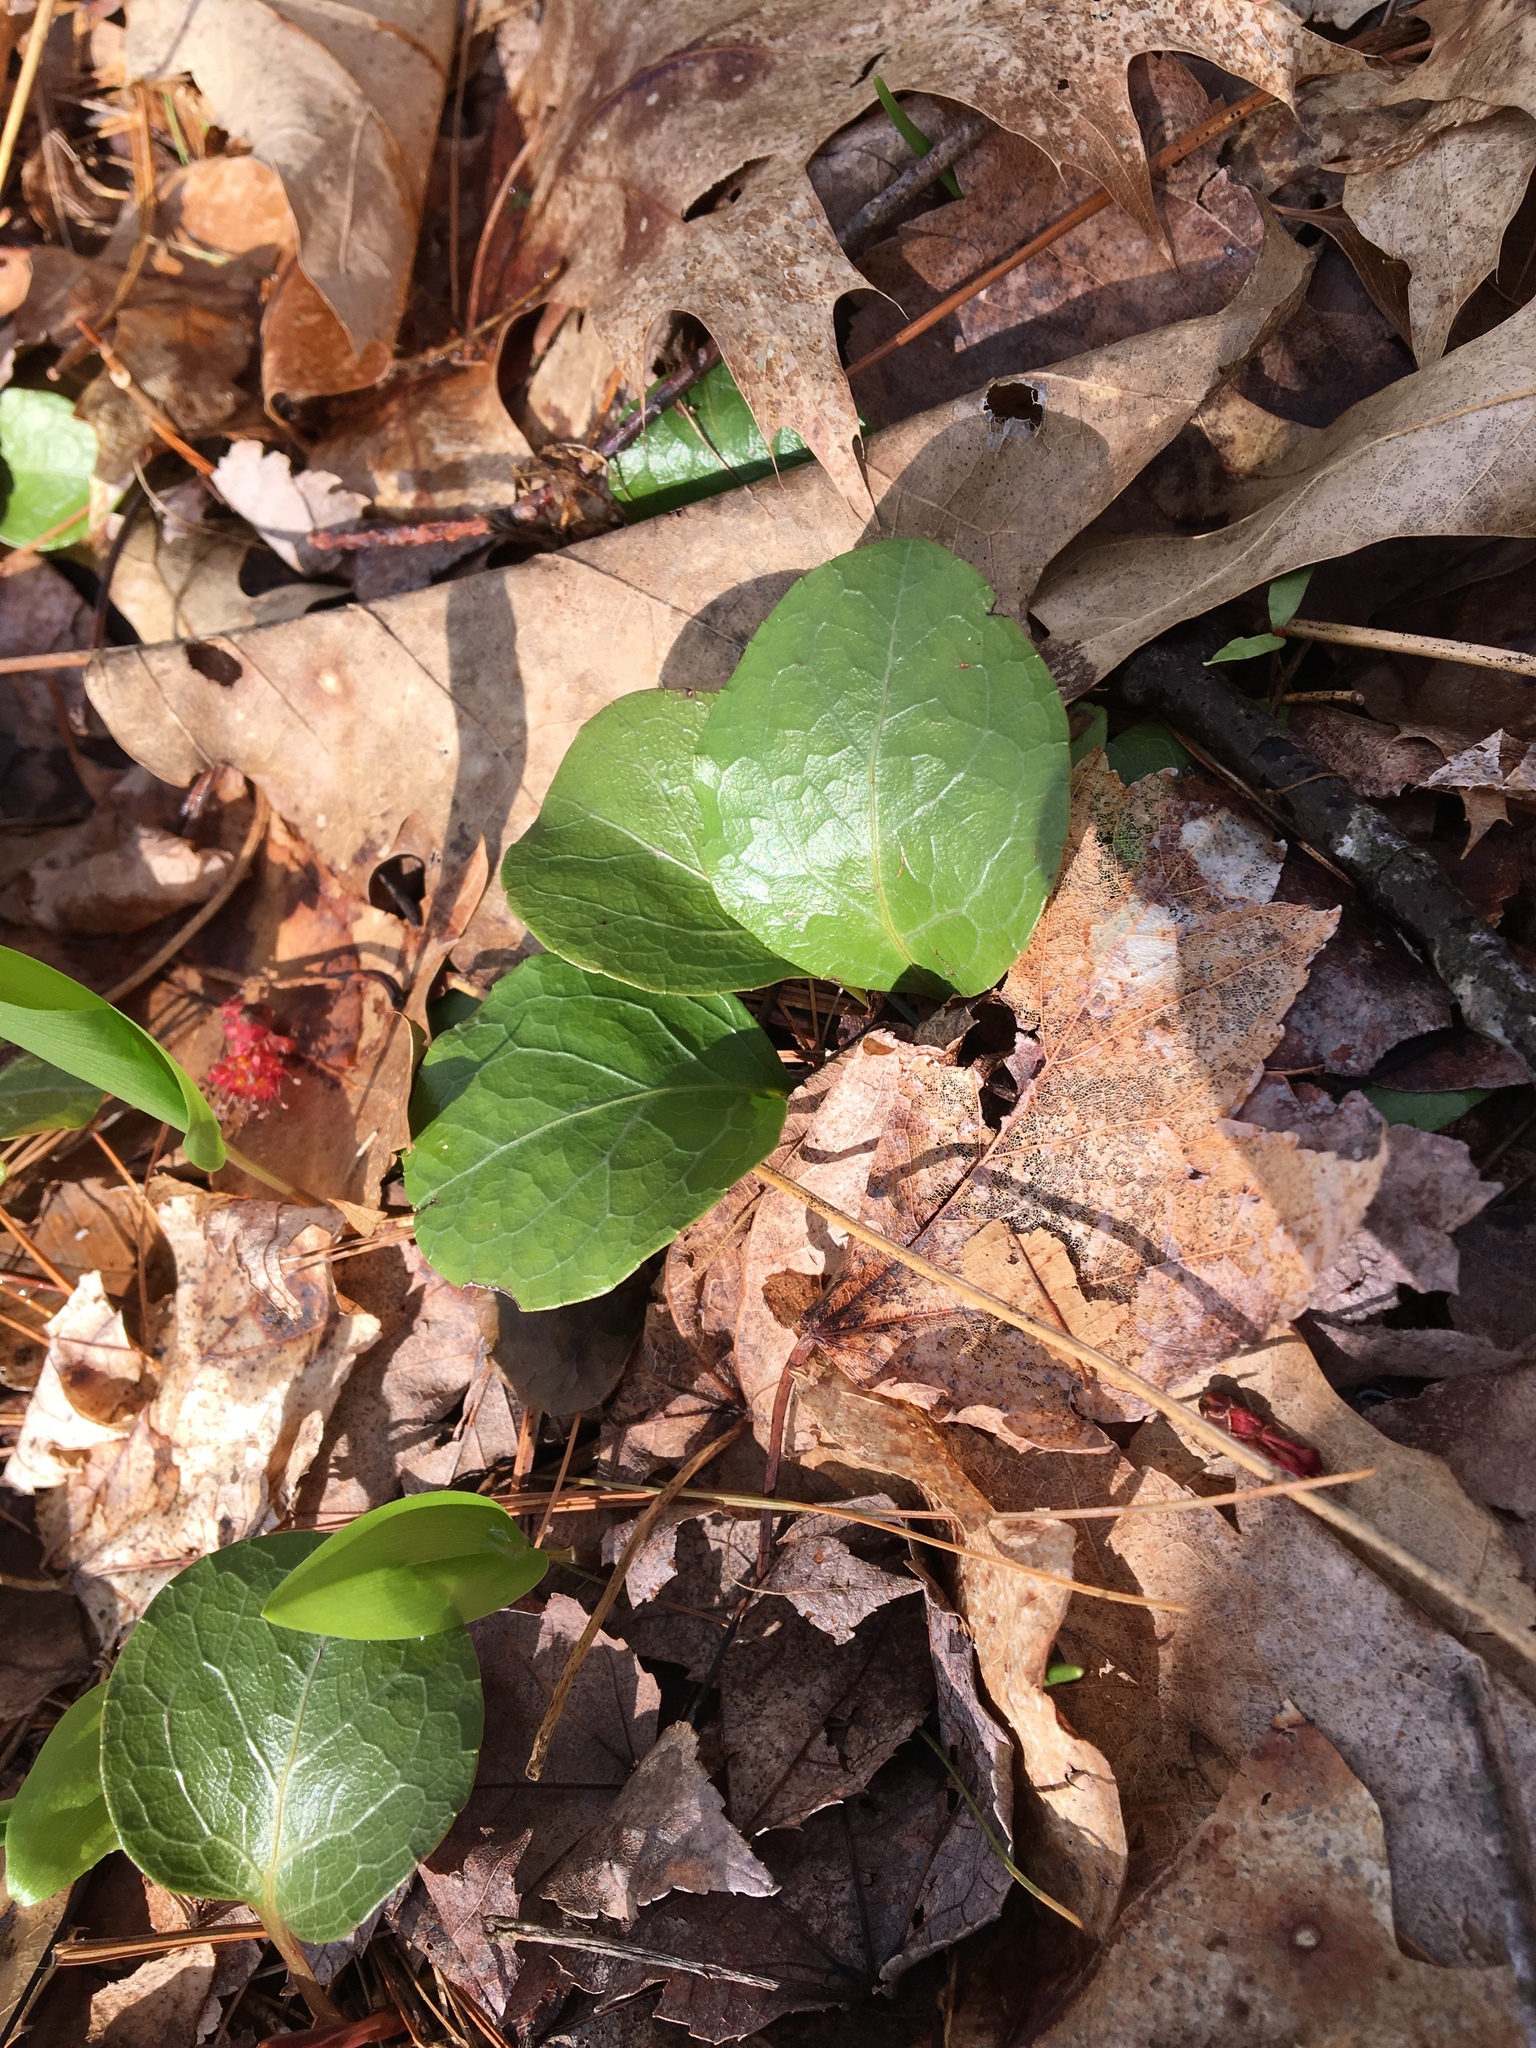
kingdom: Plantae
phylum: Tracheophyta
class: Magnoliopsida
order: Ericales
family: Ericaceae
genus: Pyrola
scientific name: Pyrola americana
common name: American wintergreen
